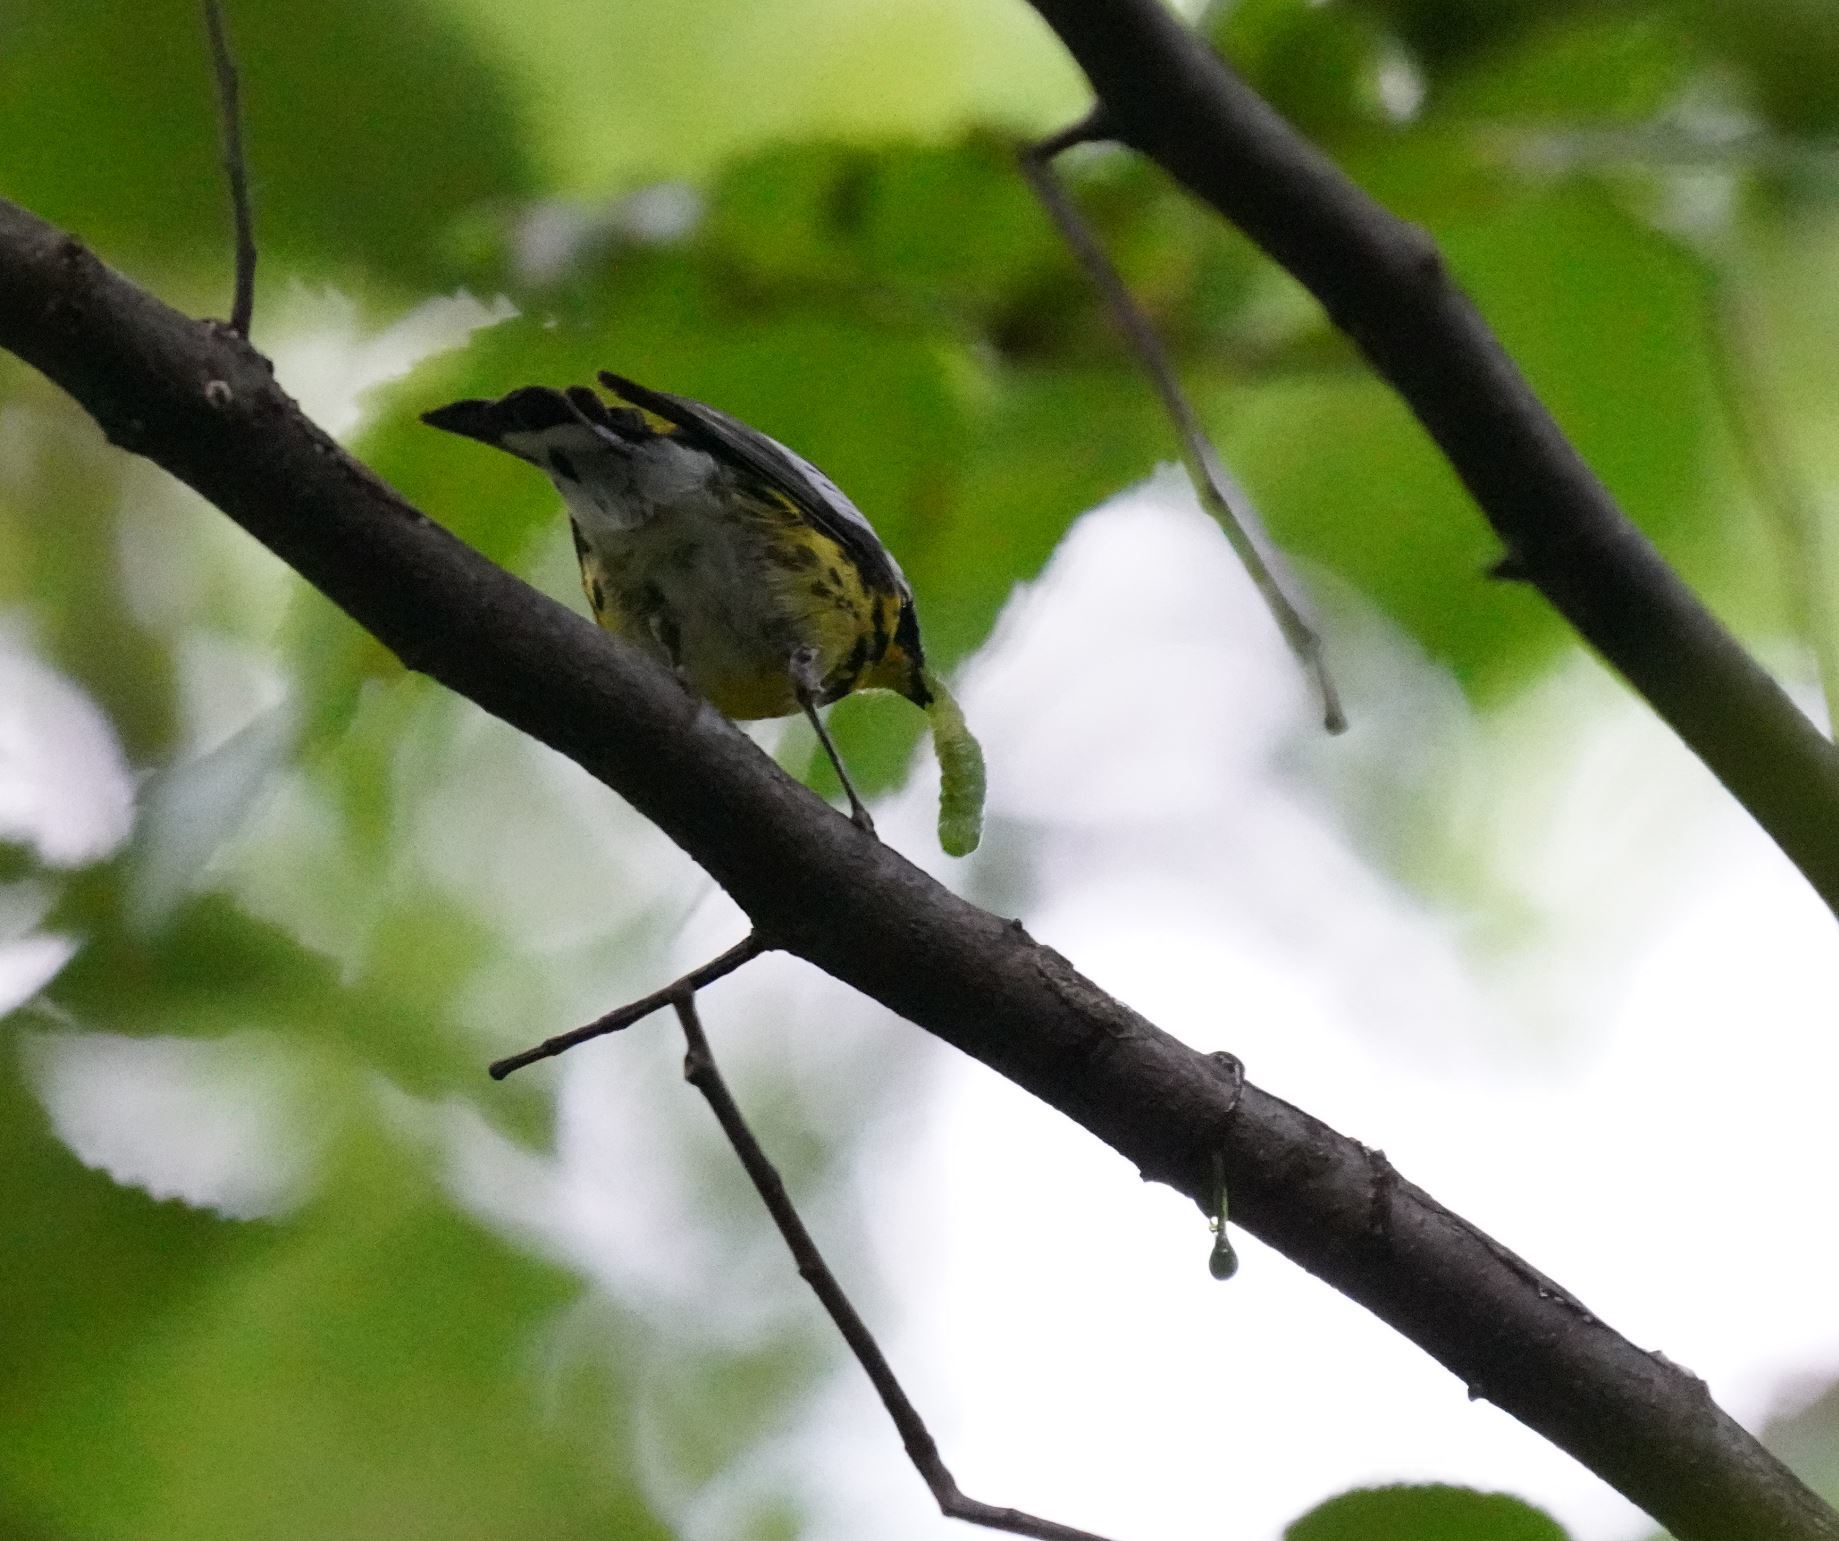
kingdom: Animalia
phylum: Chordata
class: Aves
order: Passeriformes
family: Parulidae
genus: Setophaga
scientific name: Setophaga magnolia
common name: Magnolia warbler
